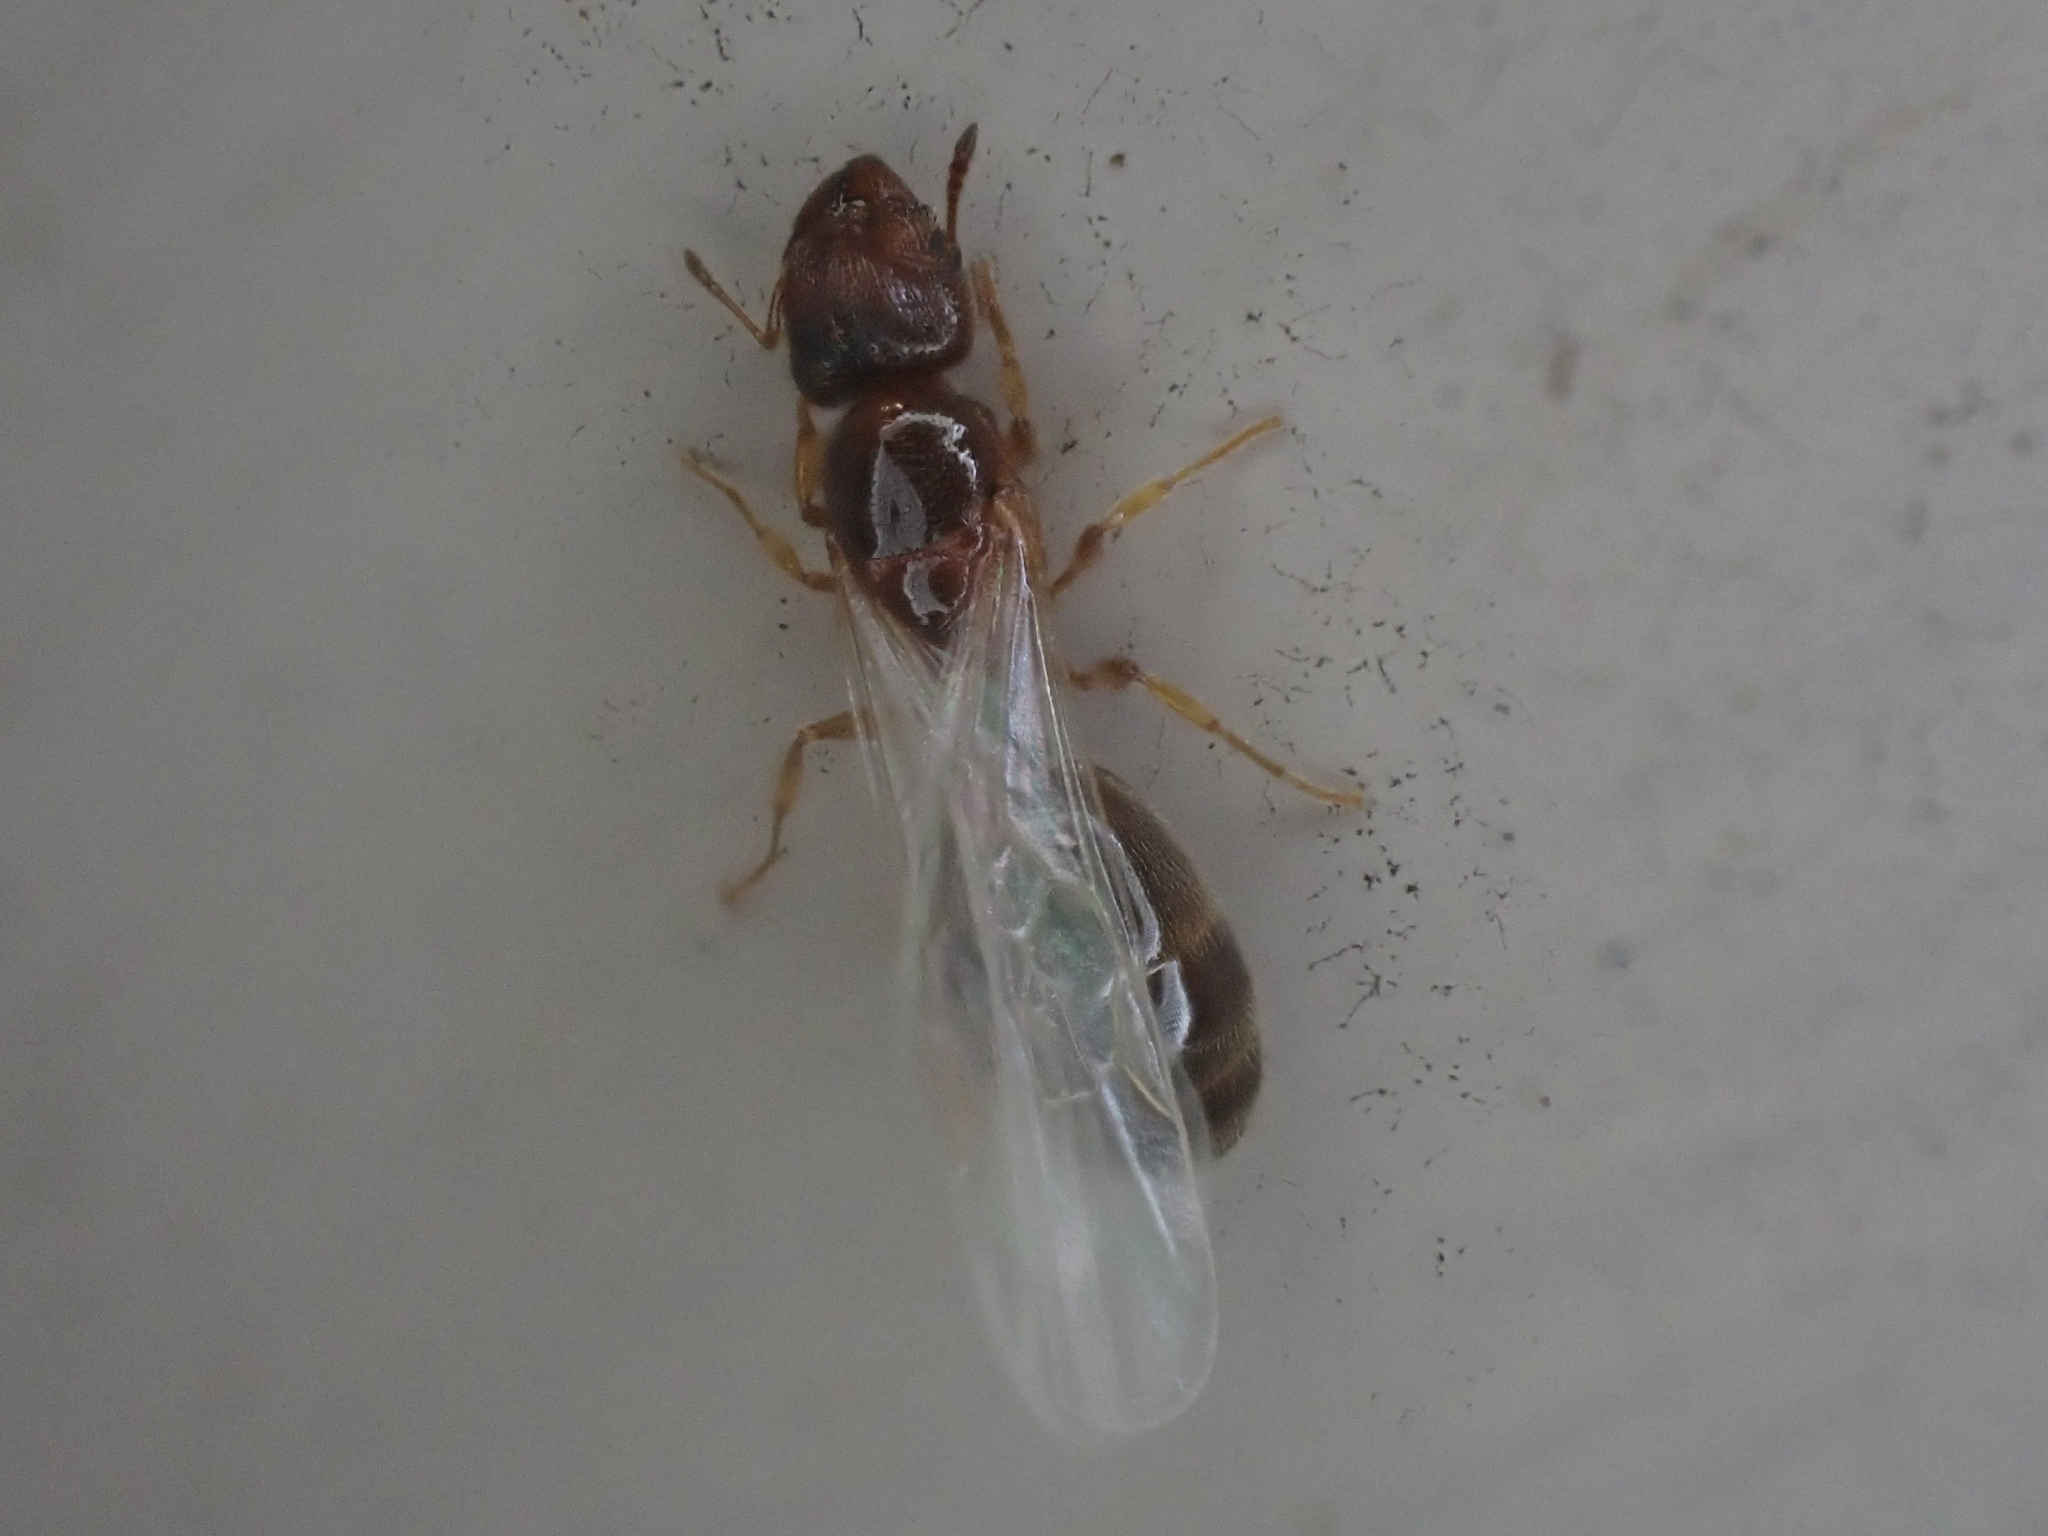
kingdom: Animalia
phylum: Arthropoda
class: Insecta
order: Hymenoptera
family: Formicidae
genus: Pheidole
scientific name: Pheidole bicarinata
